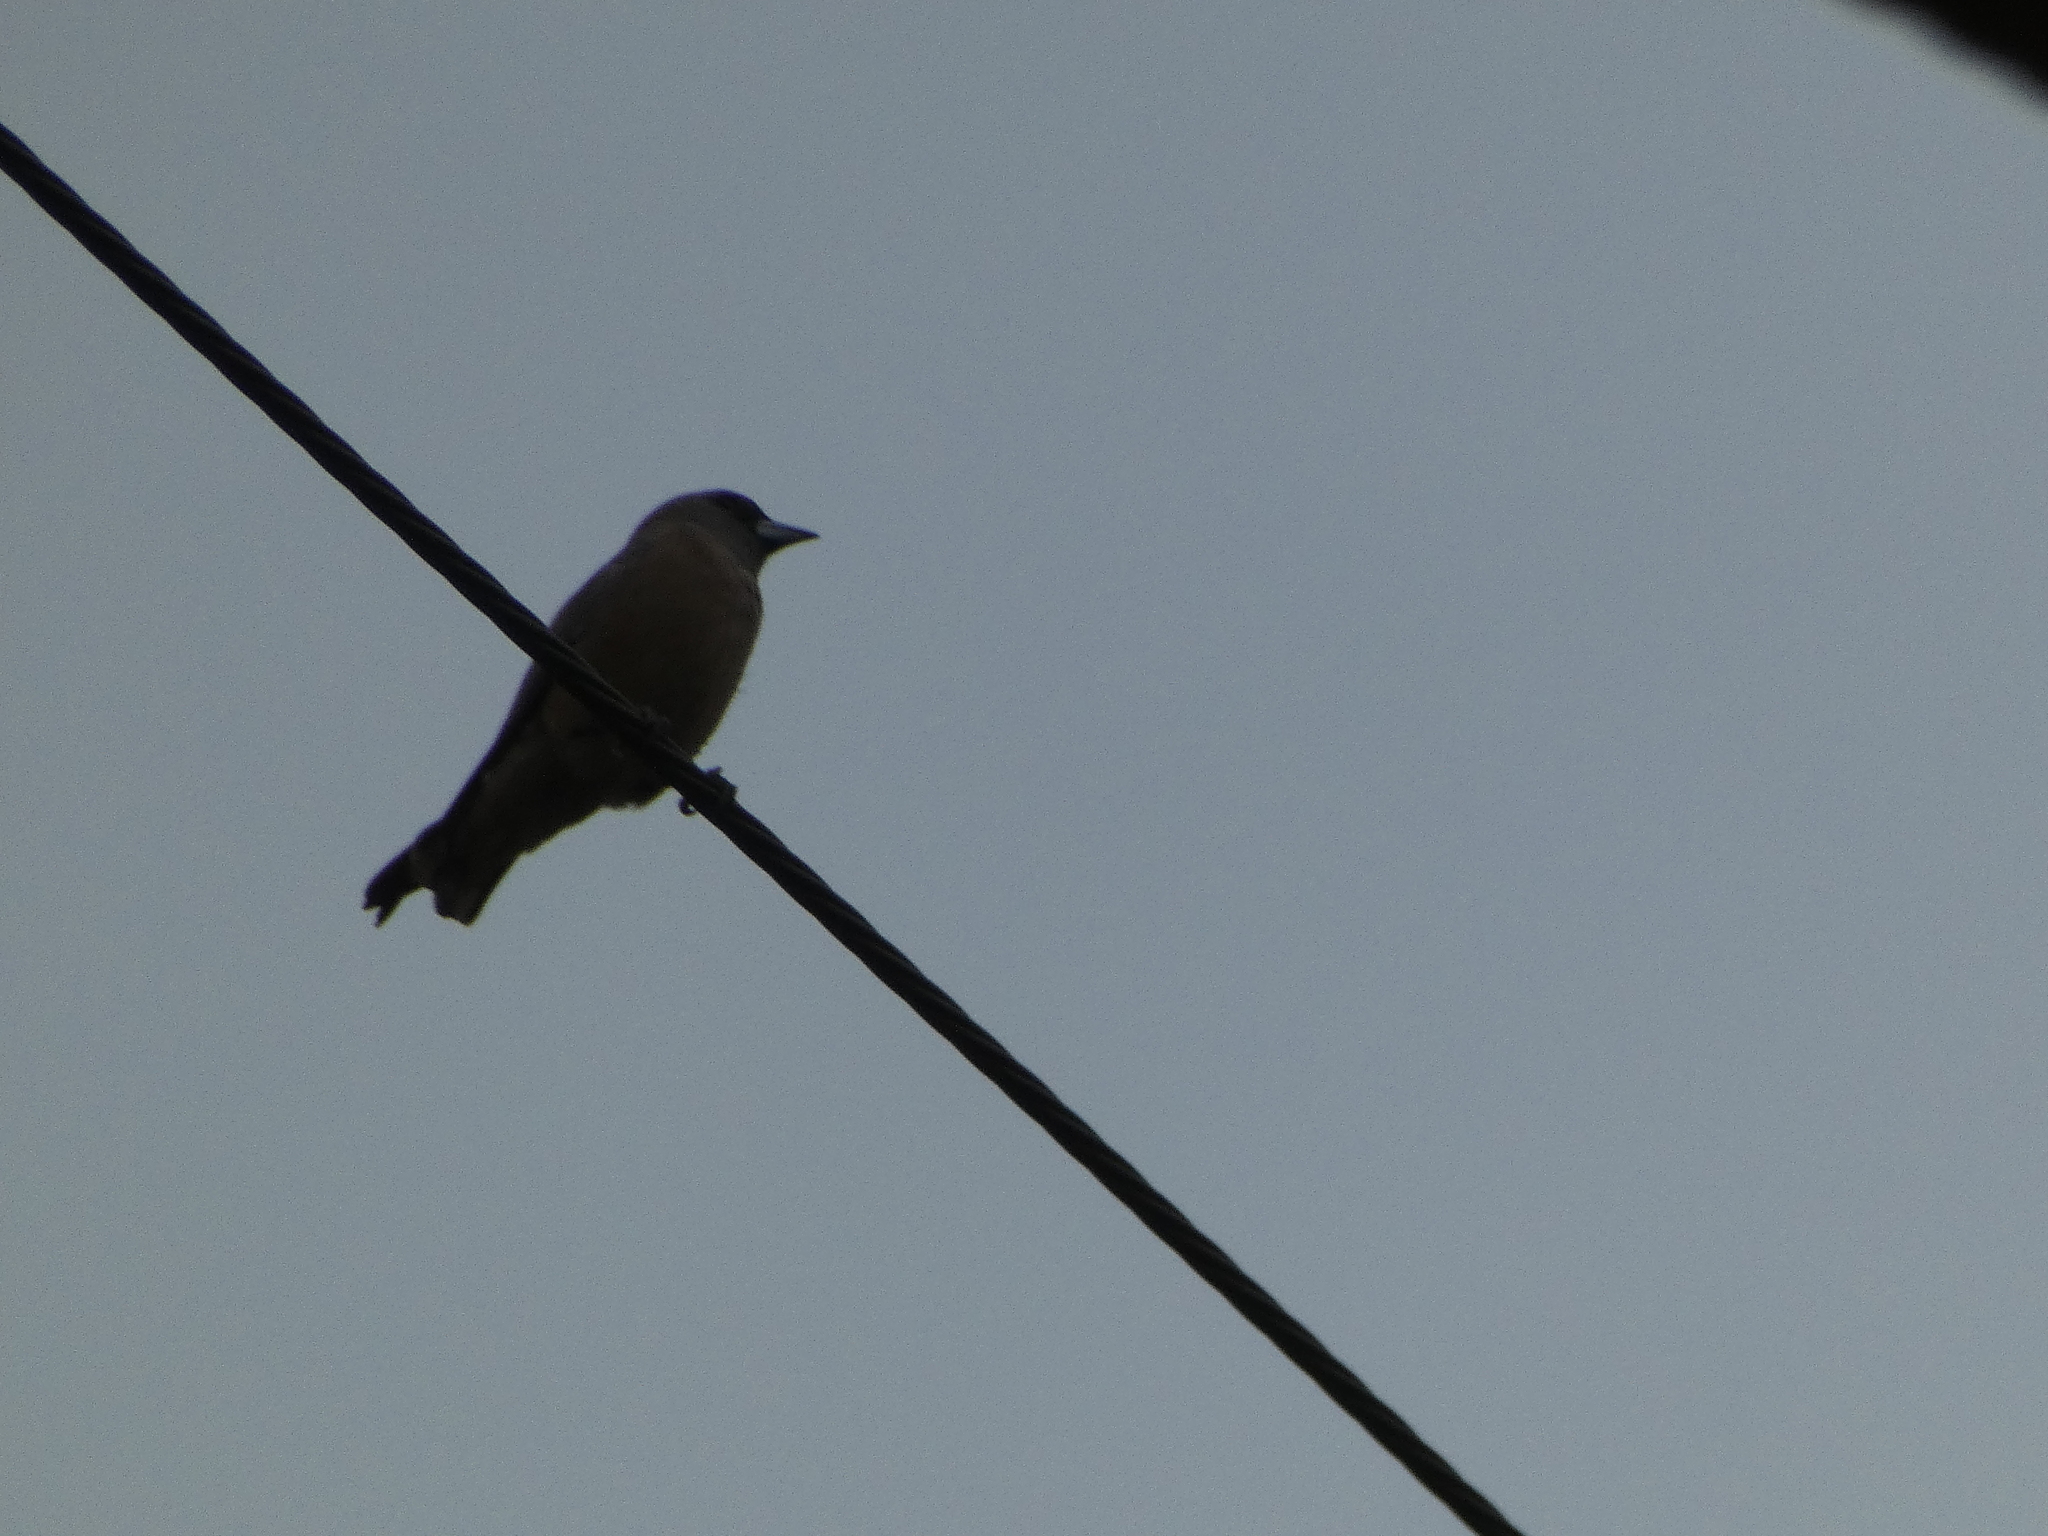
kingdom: Animalia
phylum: Chordata
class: Aves
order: Passeriformes
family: Artamidae
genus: Artamus
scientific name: Artamus fuscus
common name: Ashy woodswallow
